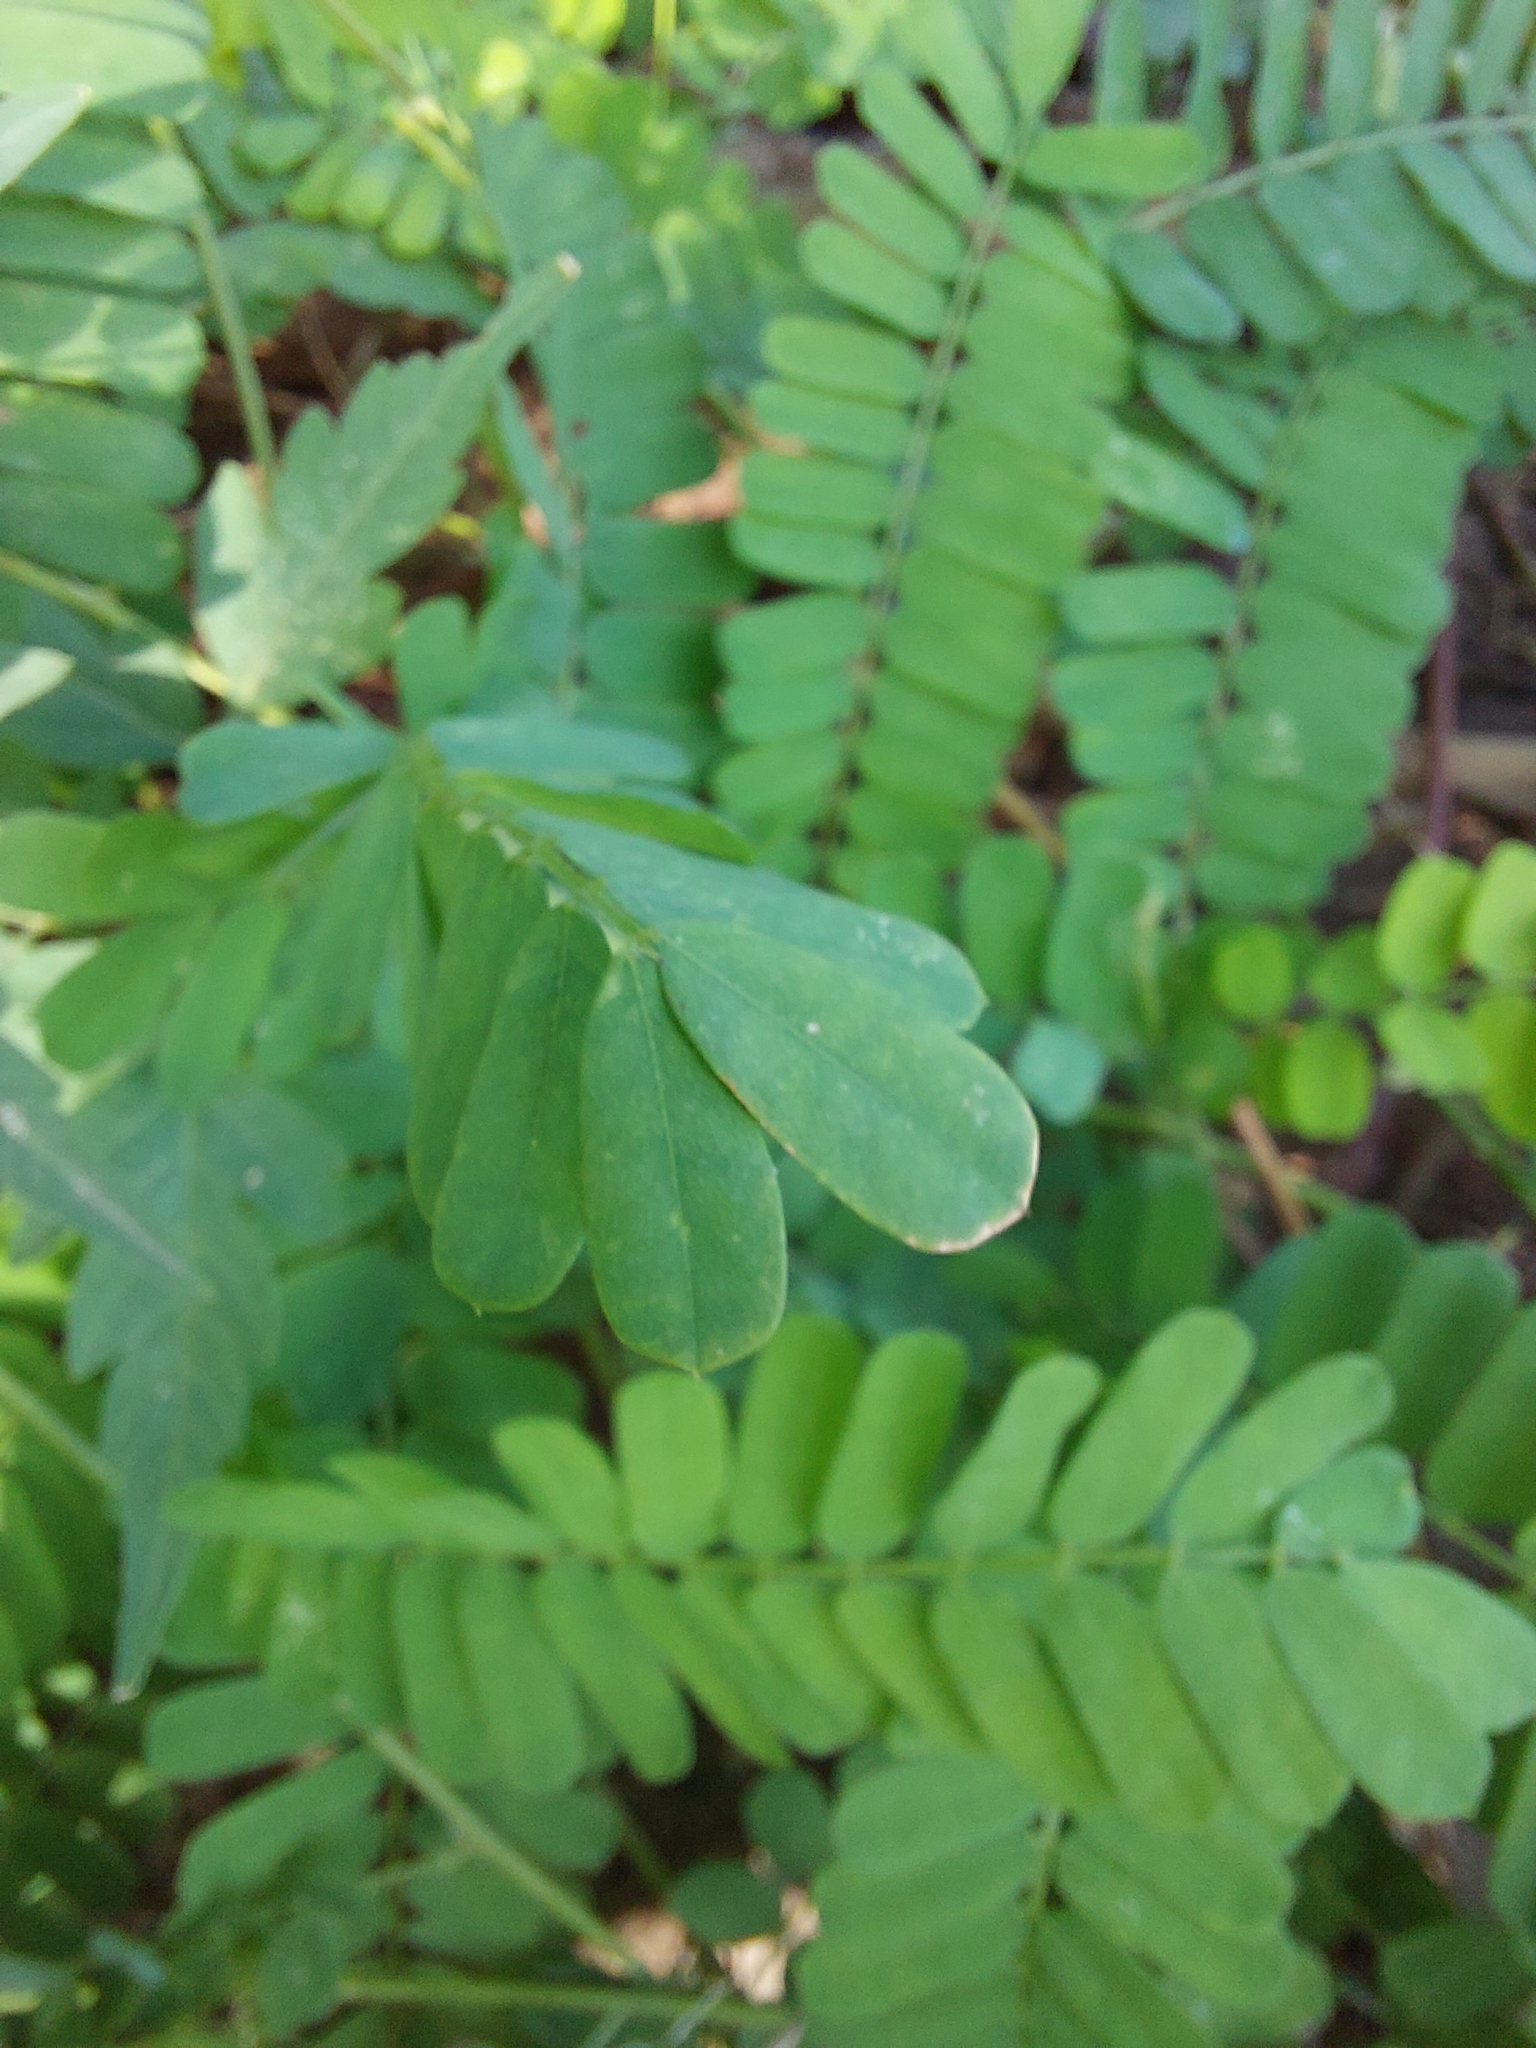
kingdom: Plantae
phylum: Tracheophyta
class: Magnoliopsida
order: Fabales
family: Fabaceae
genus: Abrus
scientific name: Abrus precatorius
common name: Rosarypea
